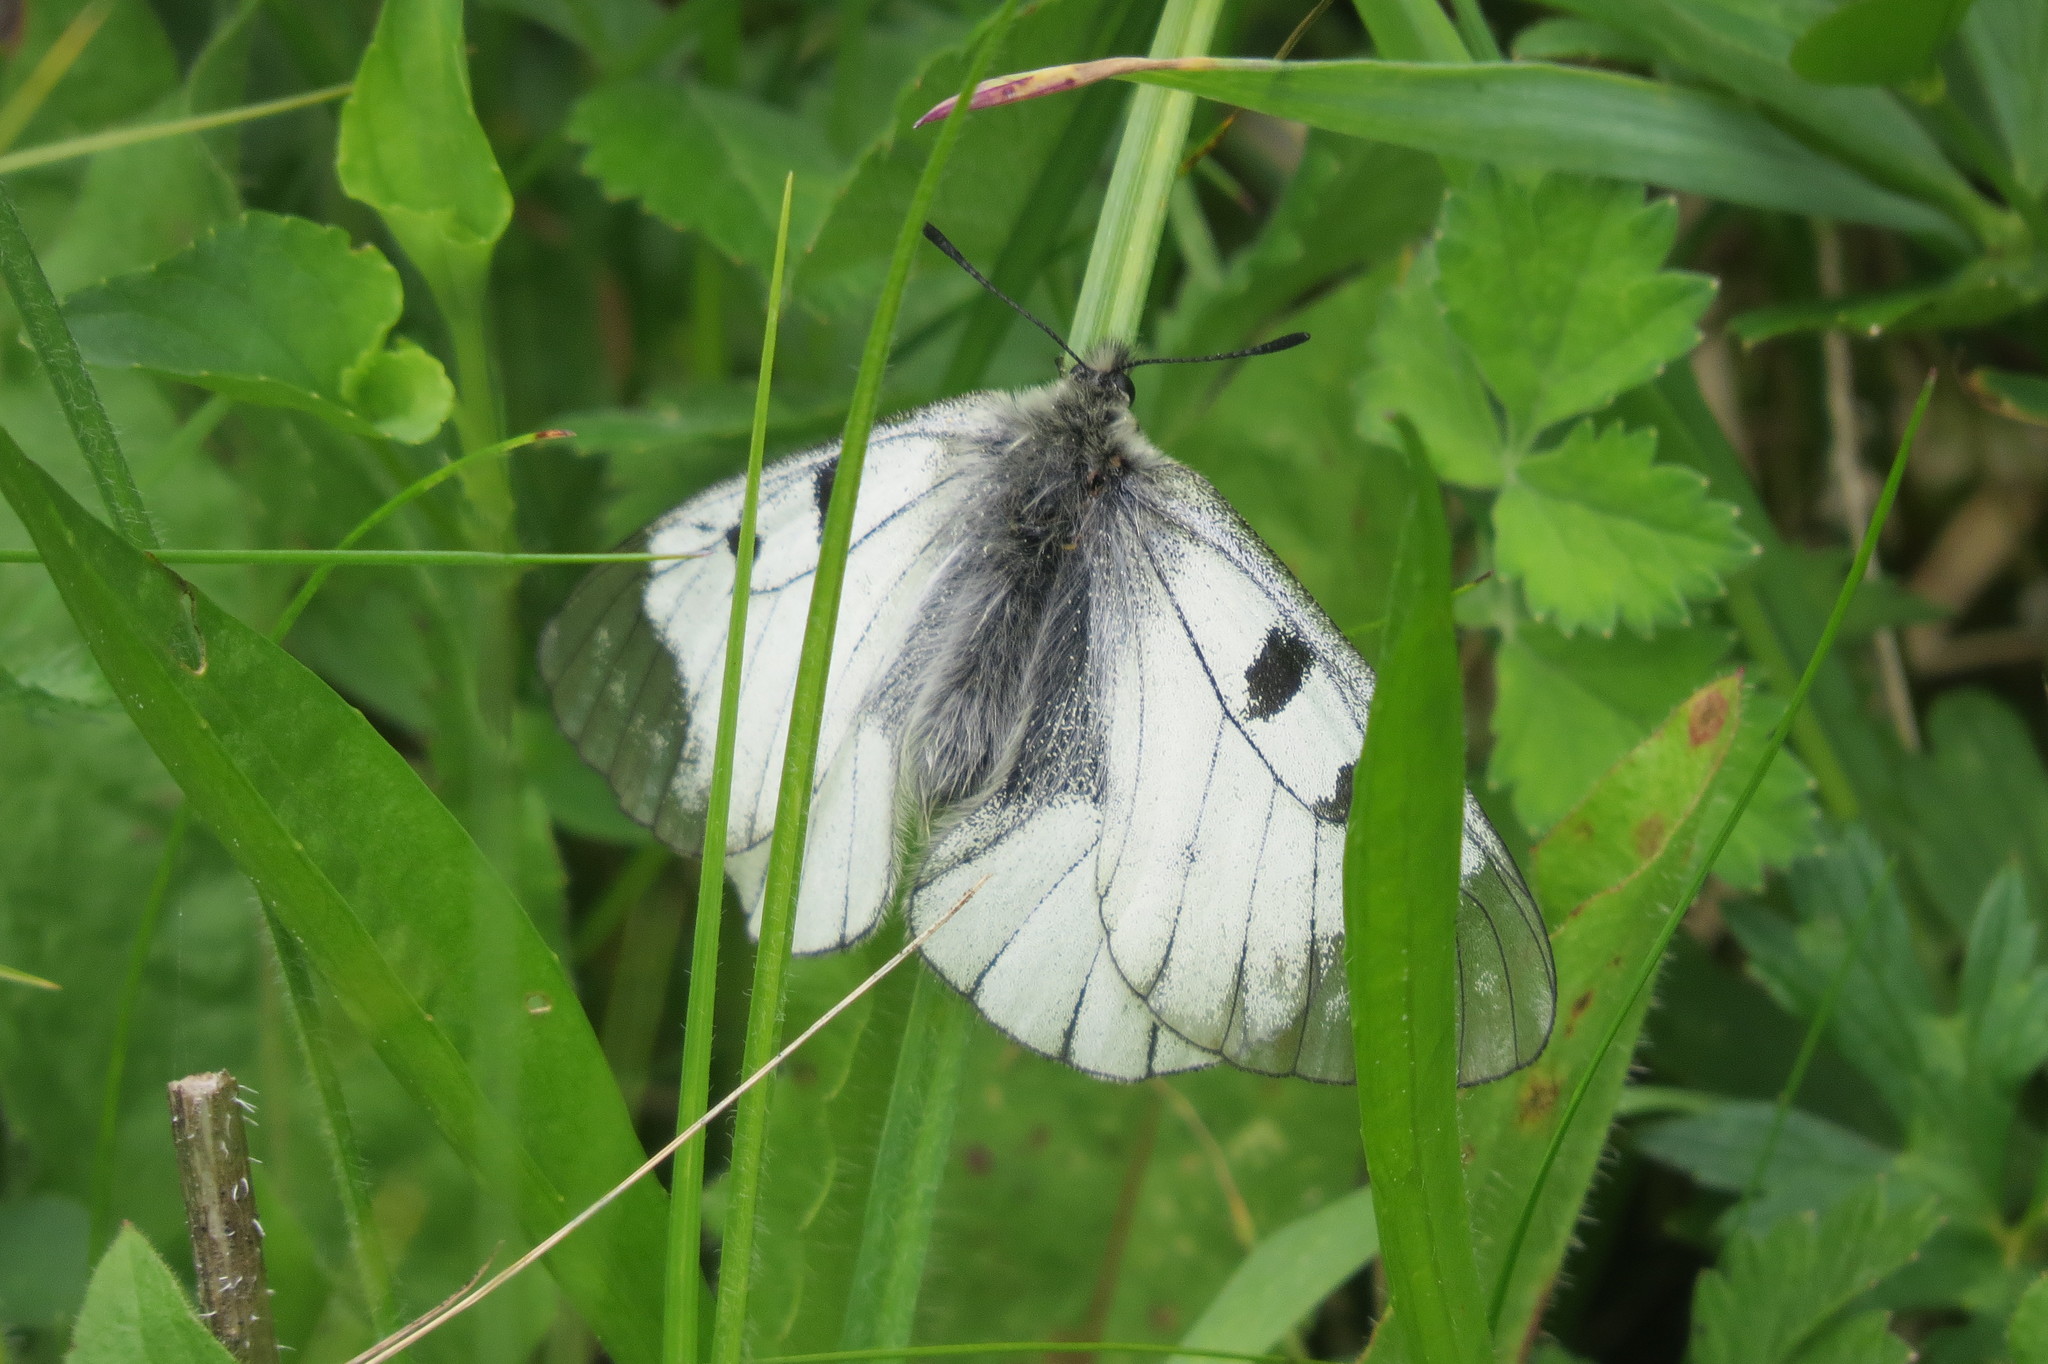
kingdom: Animalia
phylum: Arthropoda
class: Insecta
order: Lepidoptera
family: Papilionidae
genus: Parnassius
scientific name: Parnassius mnemosyne
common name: Clouded apollo
